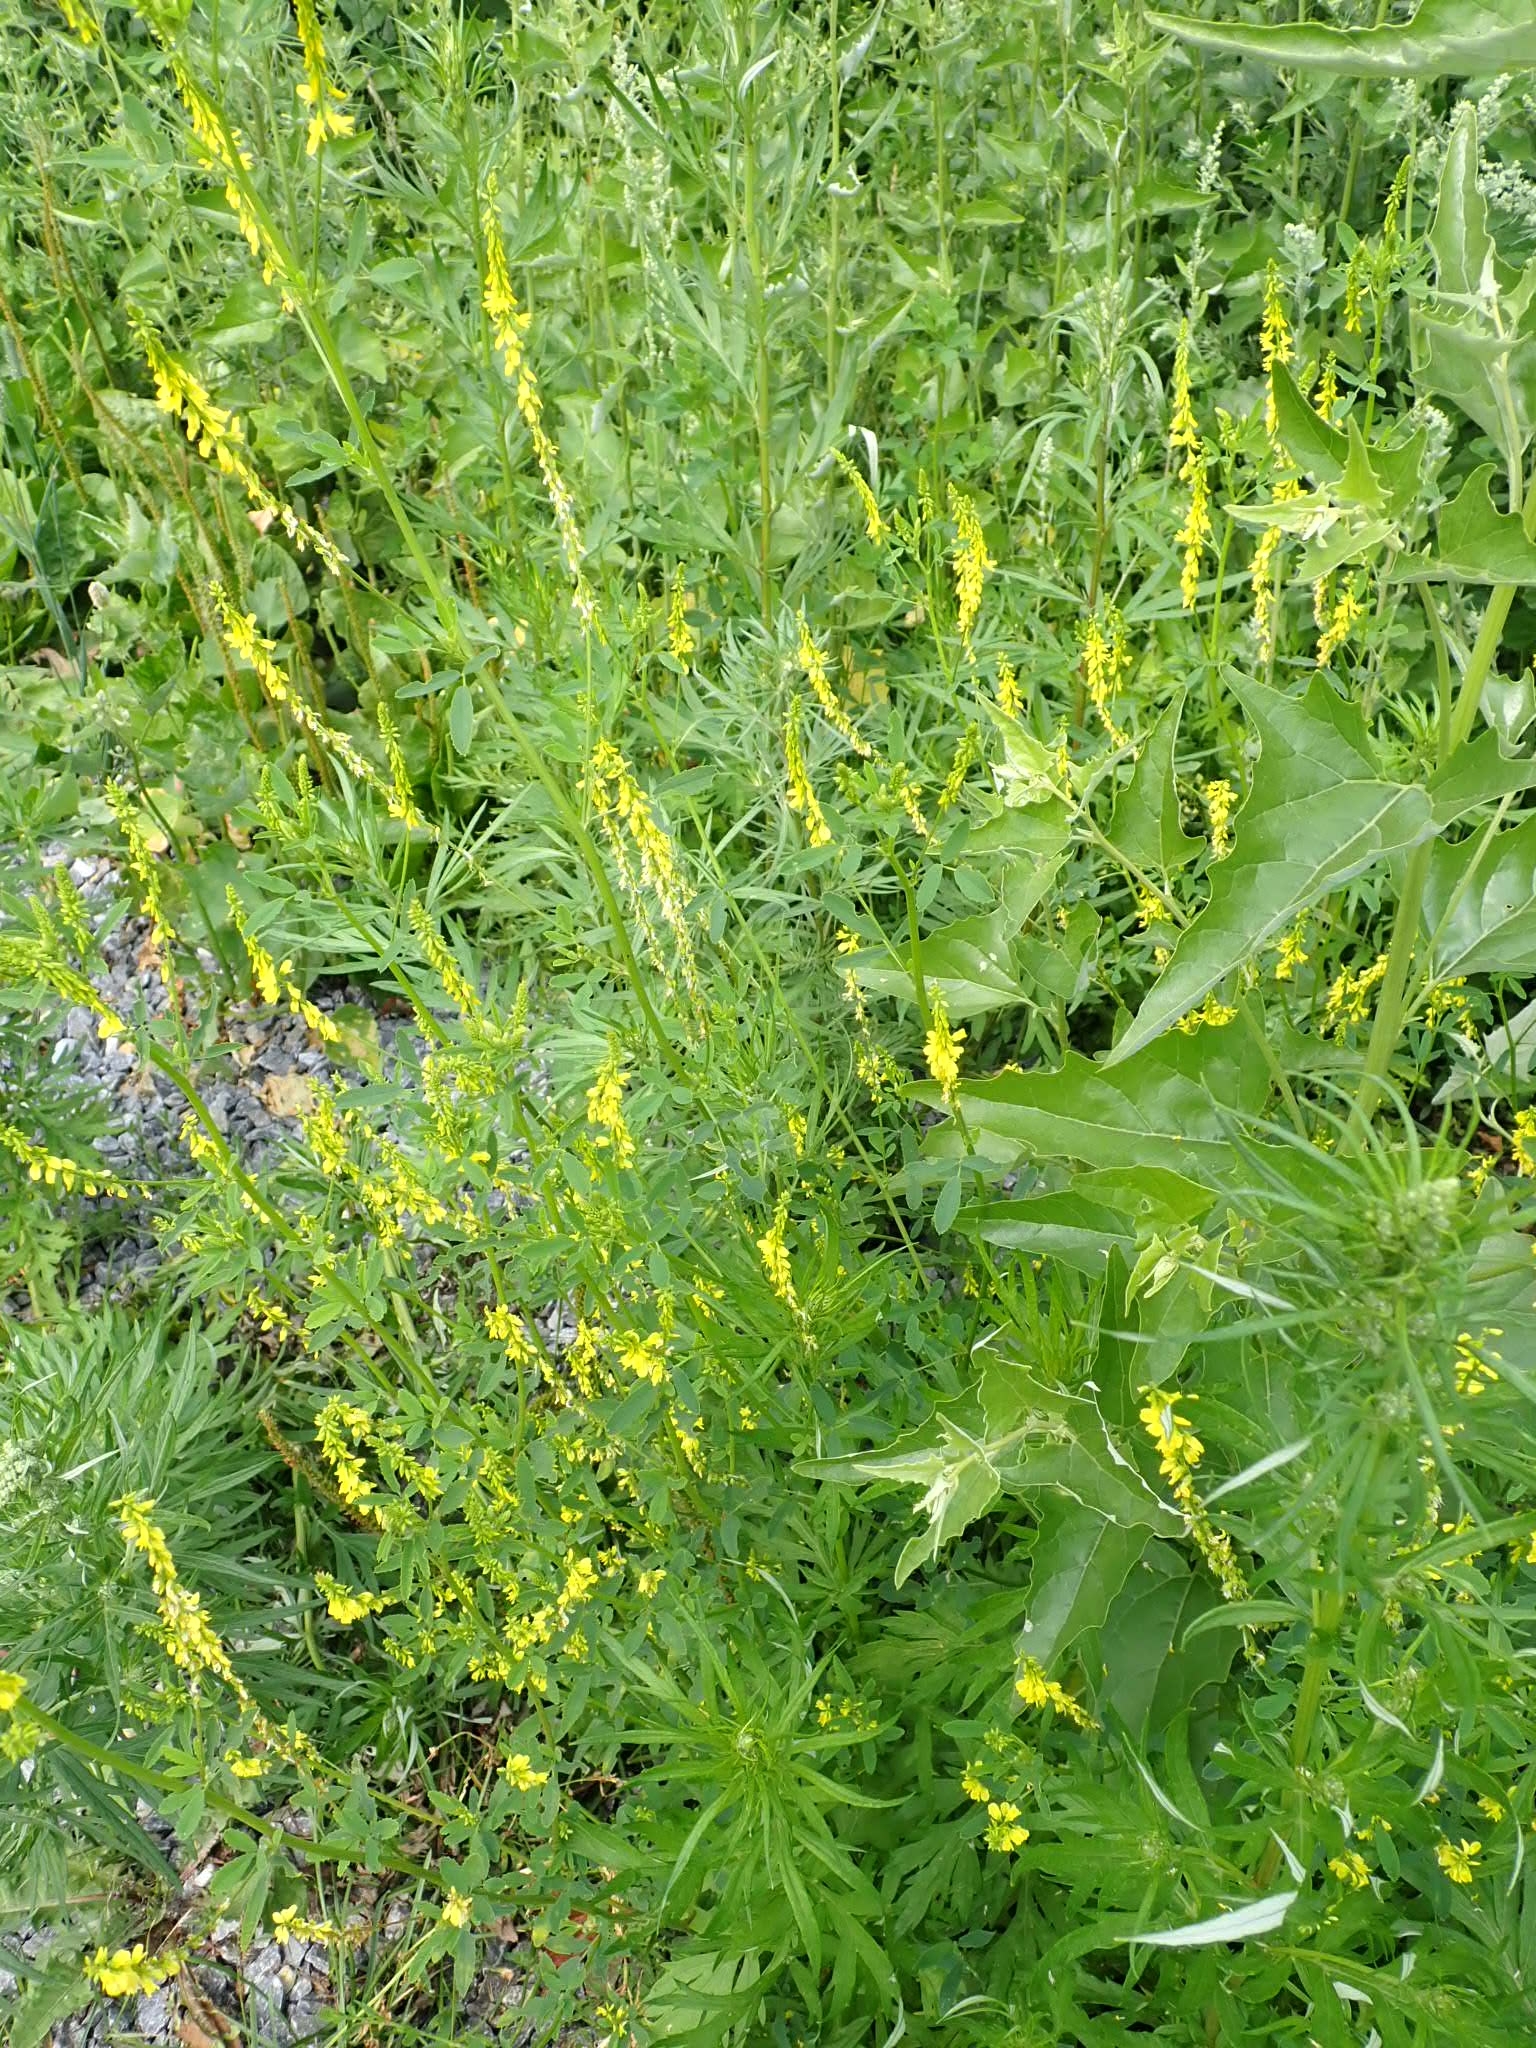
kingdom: Plantae
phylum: Tracheophyta
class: Magnoliopsida
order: Fabales
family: Fabaceae
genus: Melilotus
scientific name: Melilotus officinalis
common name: Sweetclover
